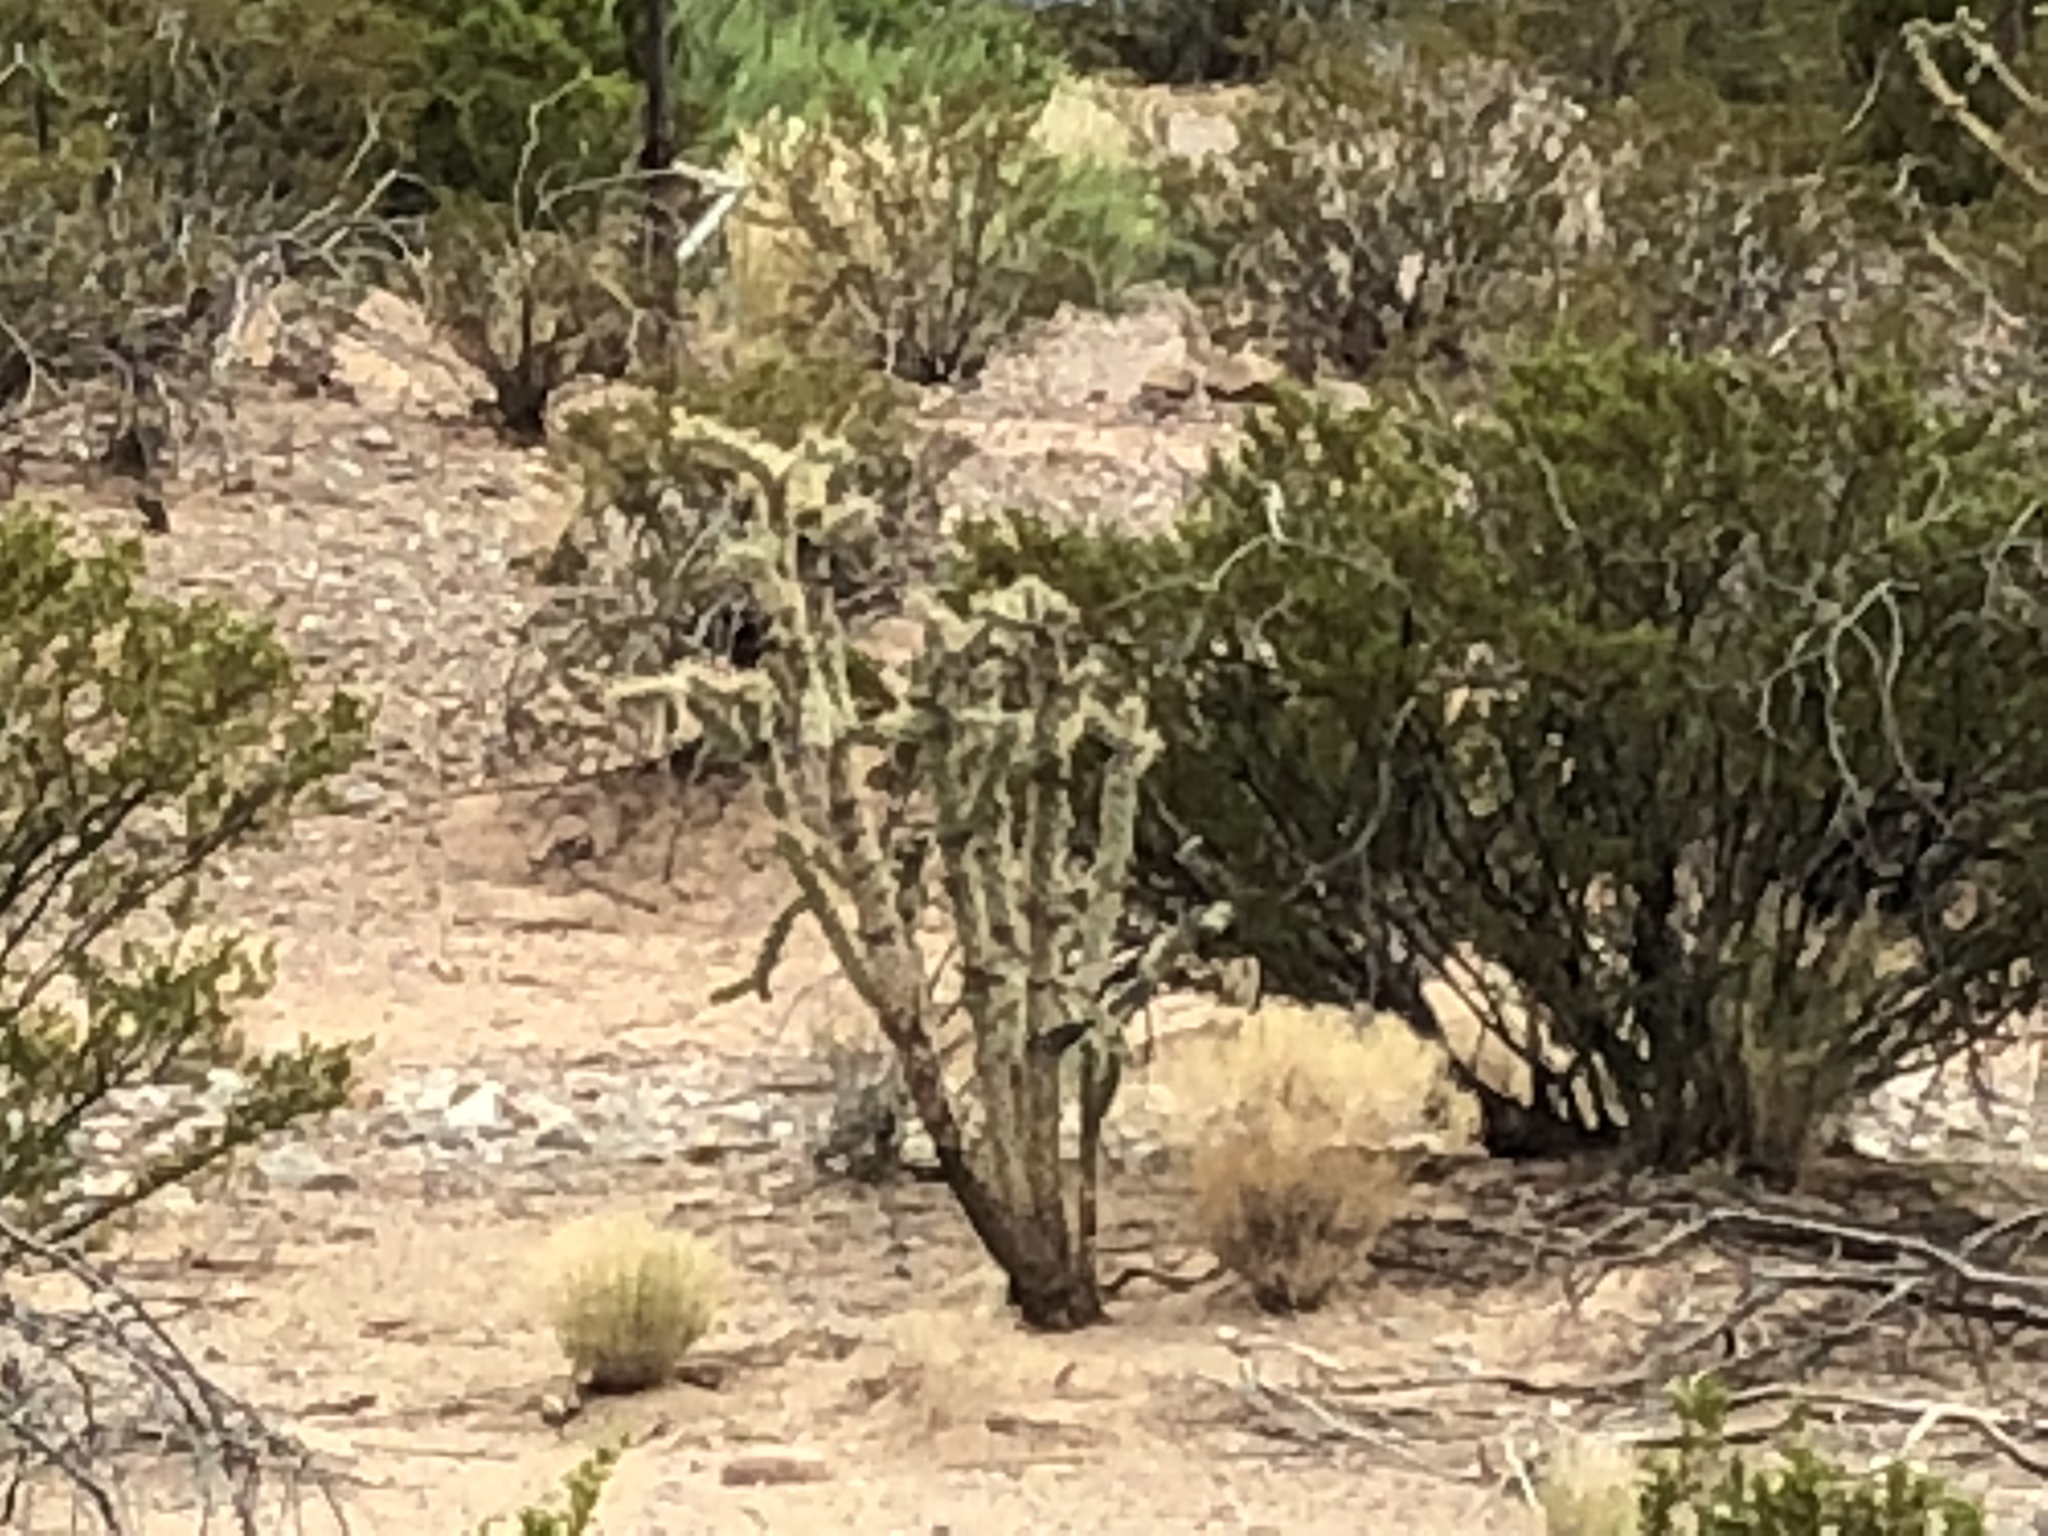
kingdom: Plantae
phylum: Tracheophyta
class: Magnoliopsida
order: Caryophyllales
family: Cactaceae
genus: Cylindropuntia
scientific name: Cylindropuntia imbricata
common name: Candelabrum cactus
